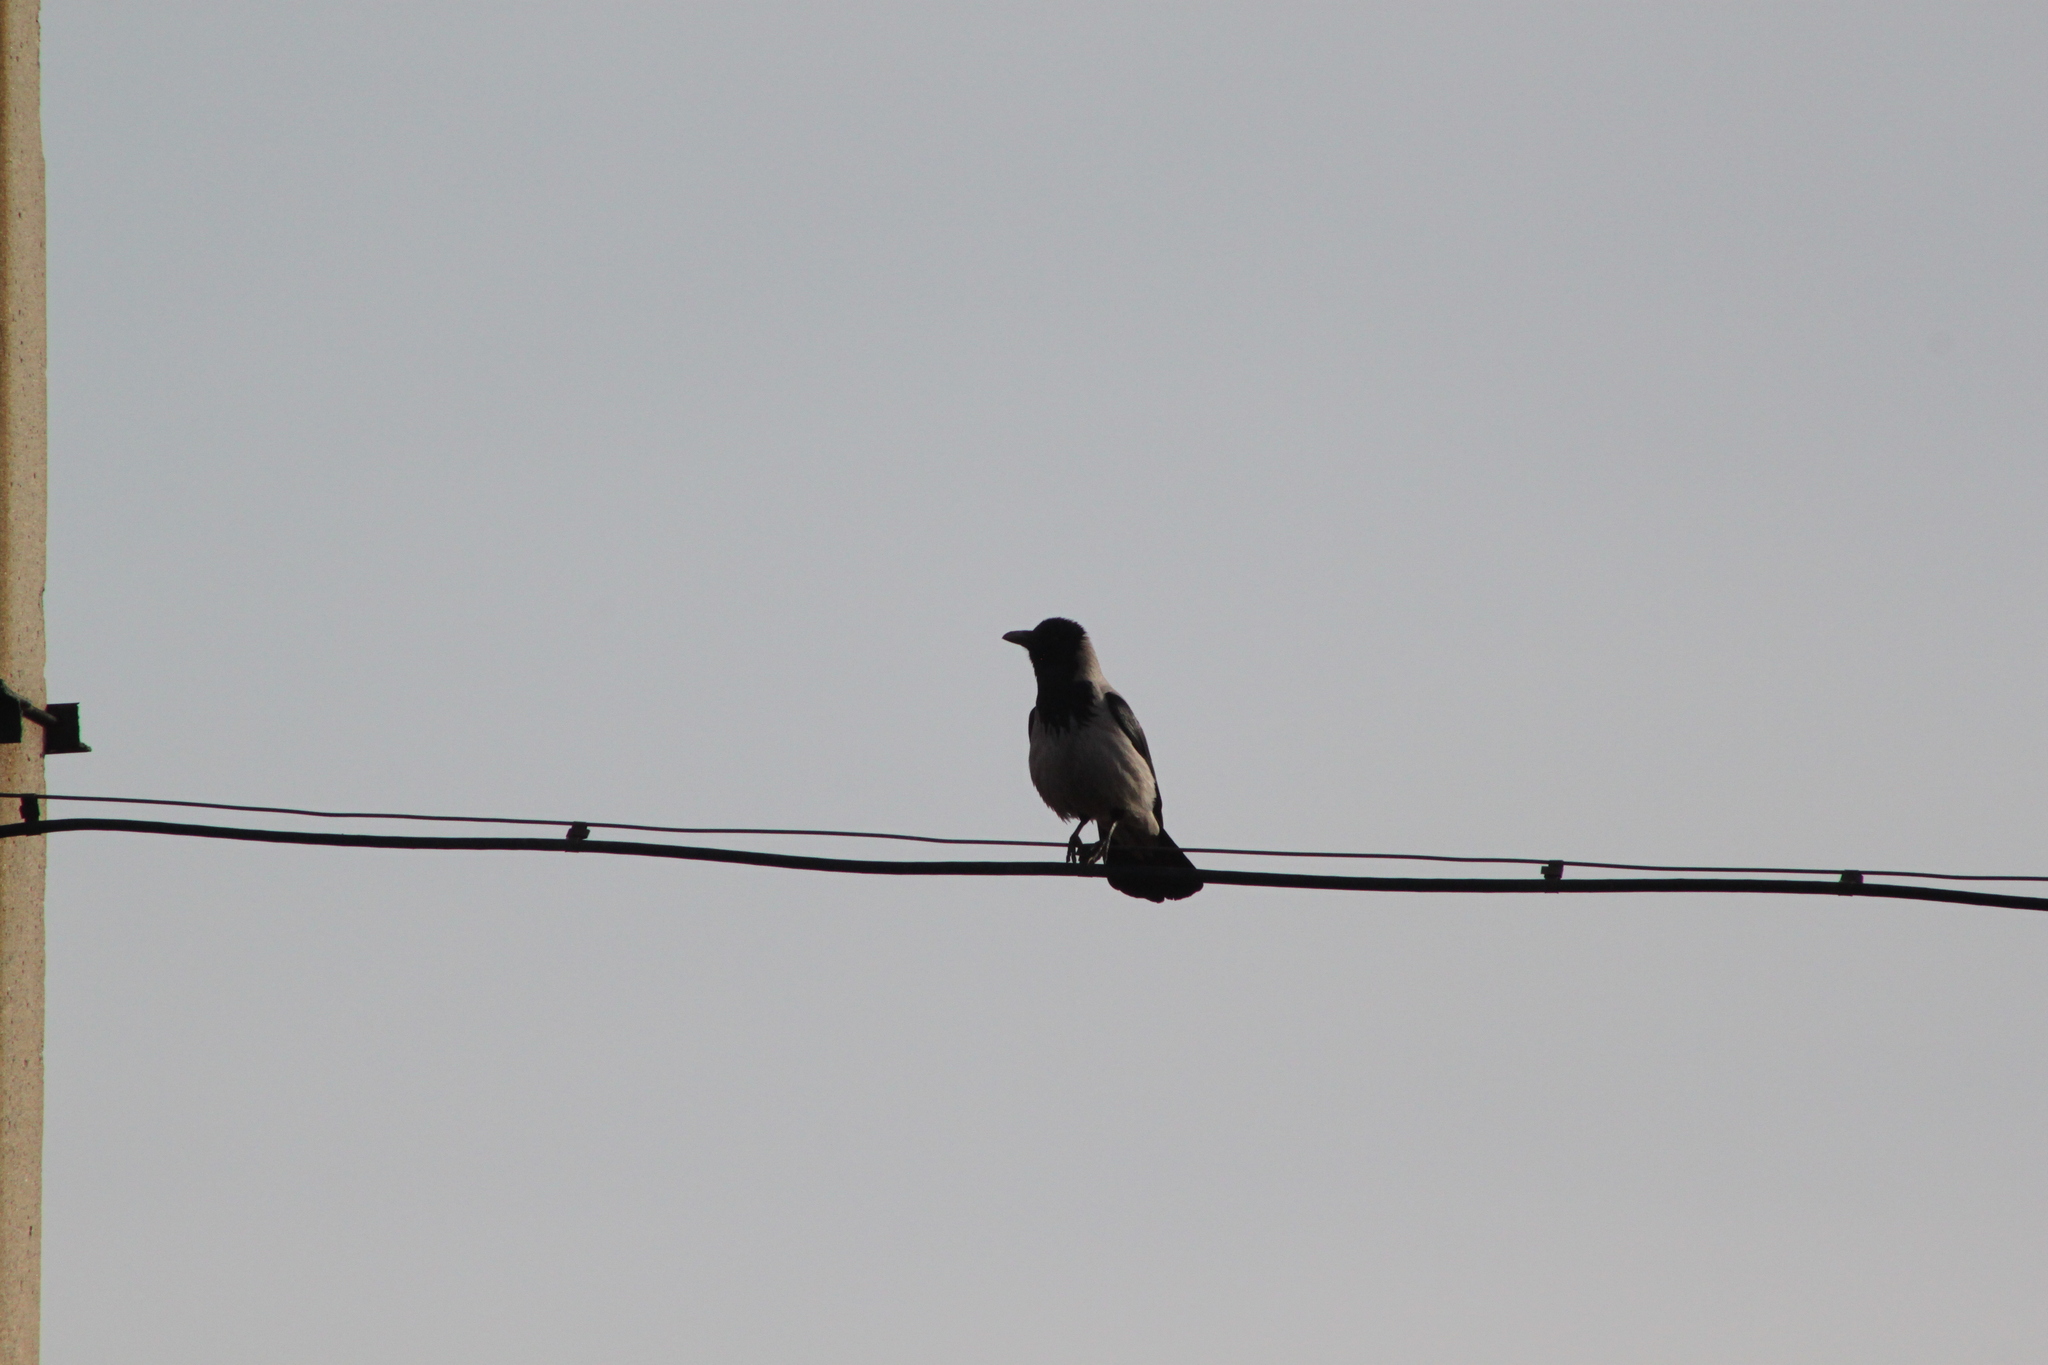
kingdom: Animalia
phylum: Chordata
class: Aves
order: Passeriformes
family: Corvidae
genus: Corvus
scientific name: Corvus cornix
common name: Hooded crow
